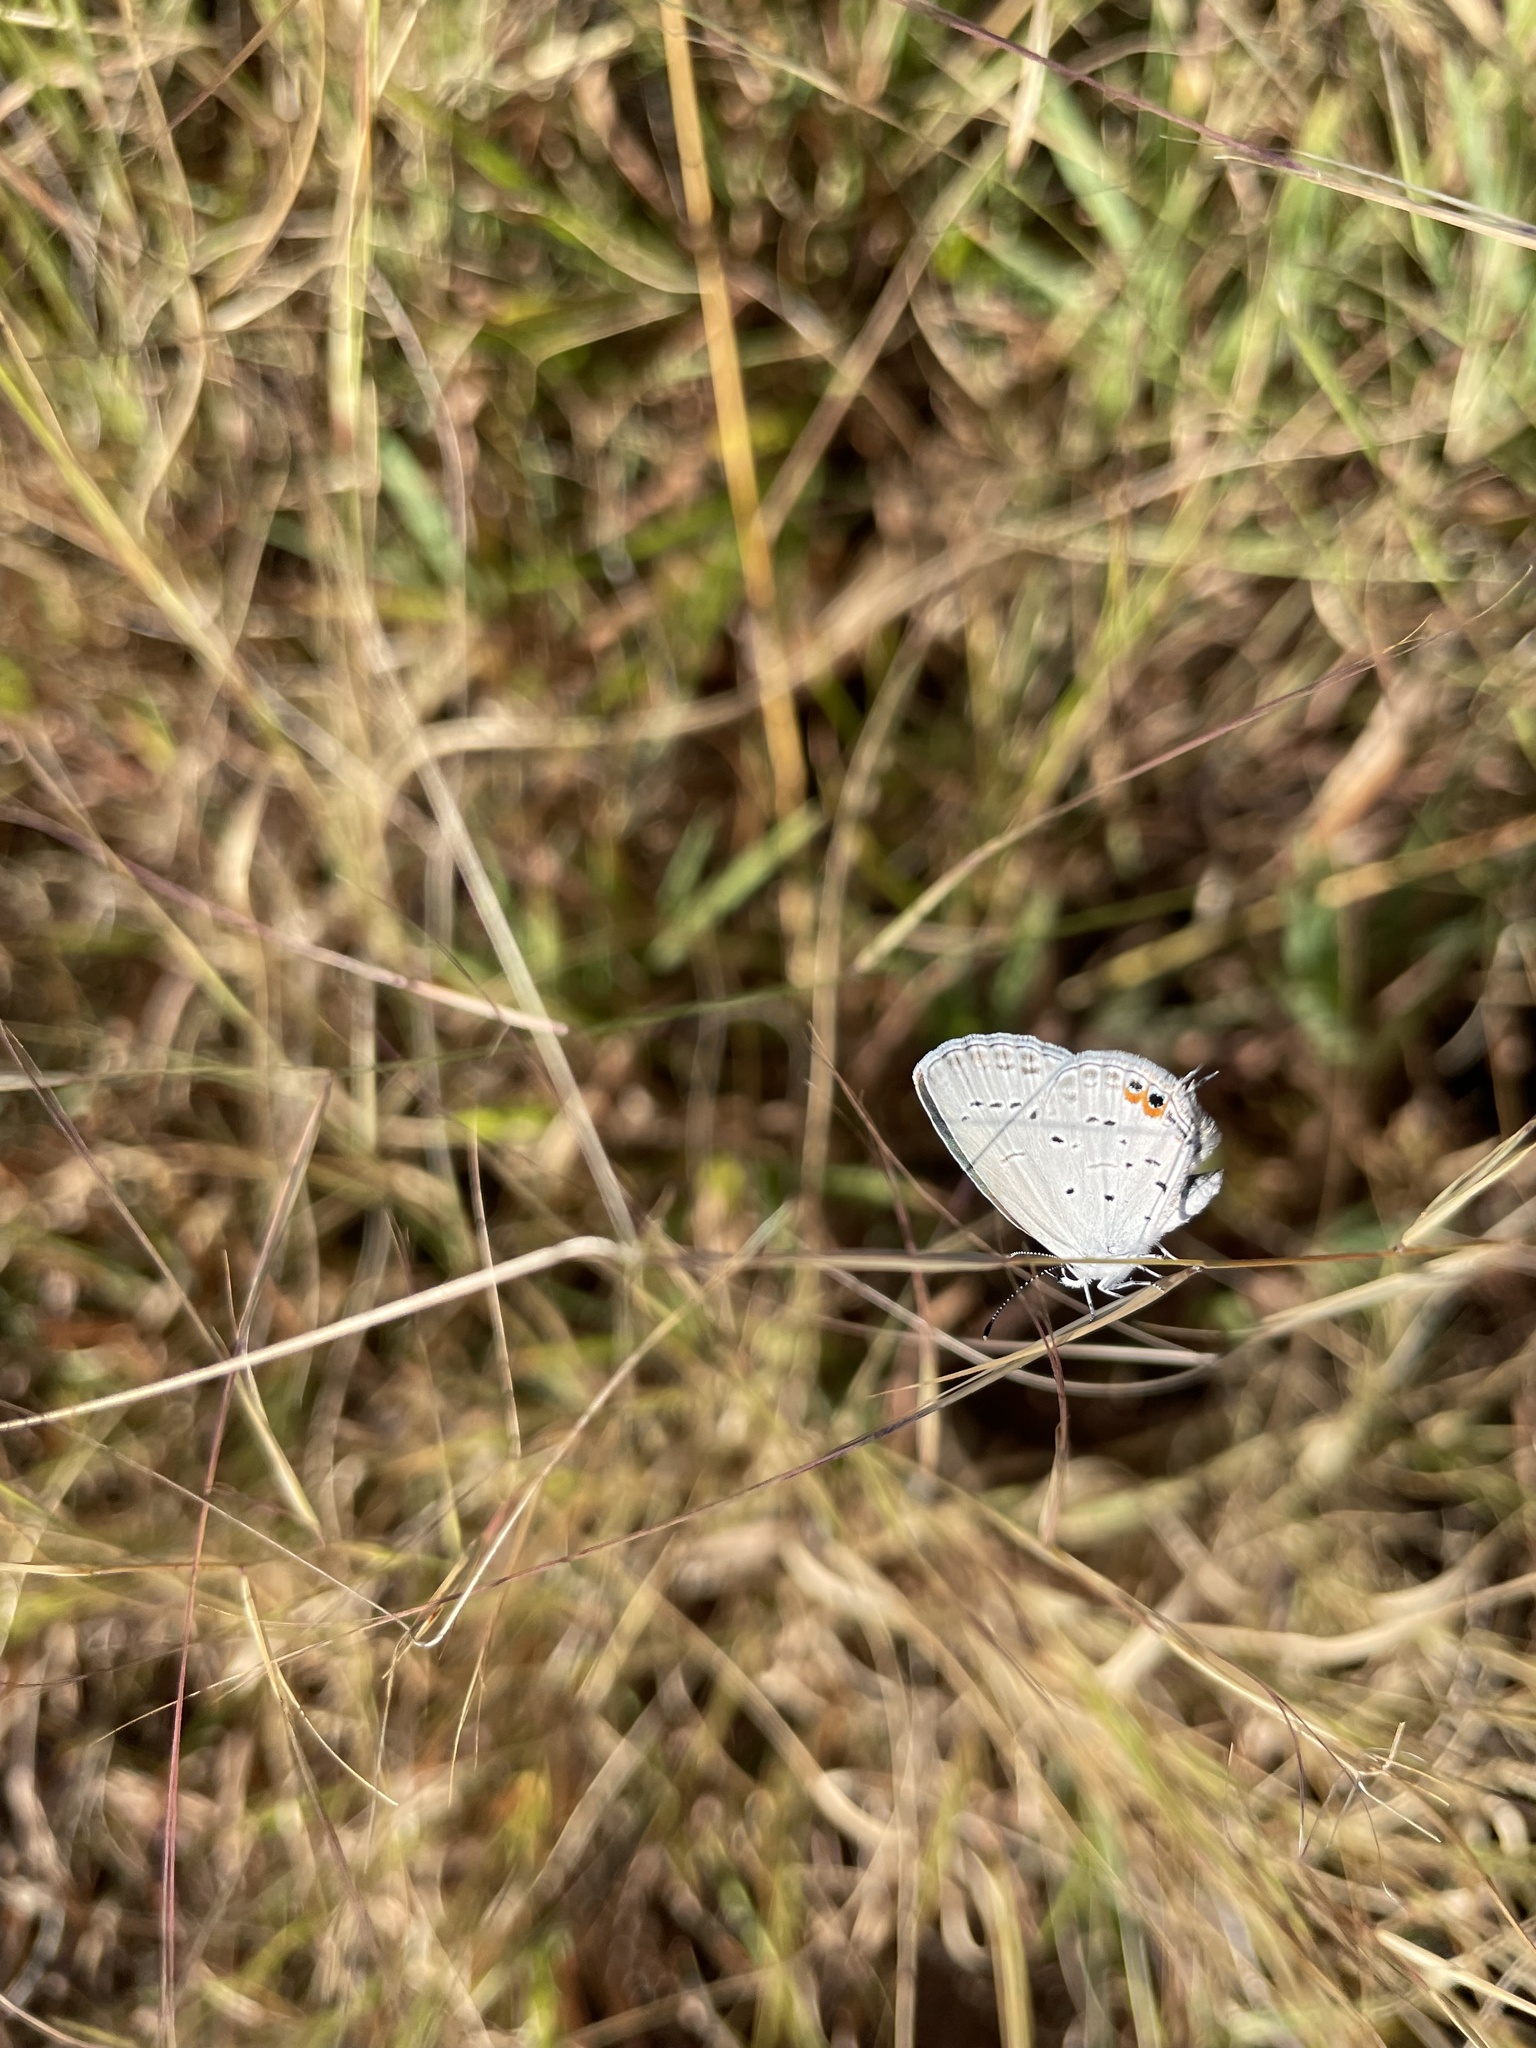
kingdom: Animalia
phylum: Arthropoda
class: Insecta
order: Lepidoptera
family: Lycaenidae
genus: Elkalyce
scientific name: Elkalyce comyntas
